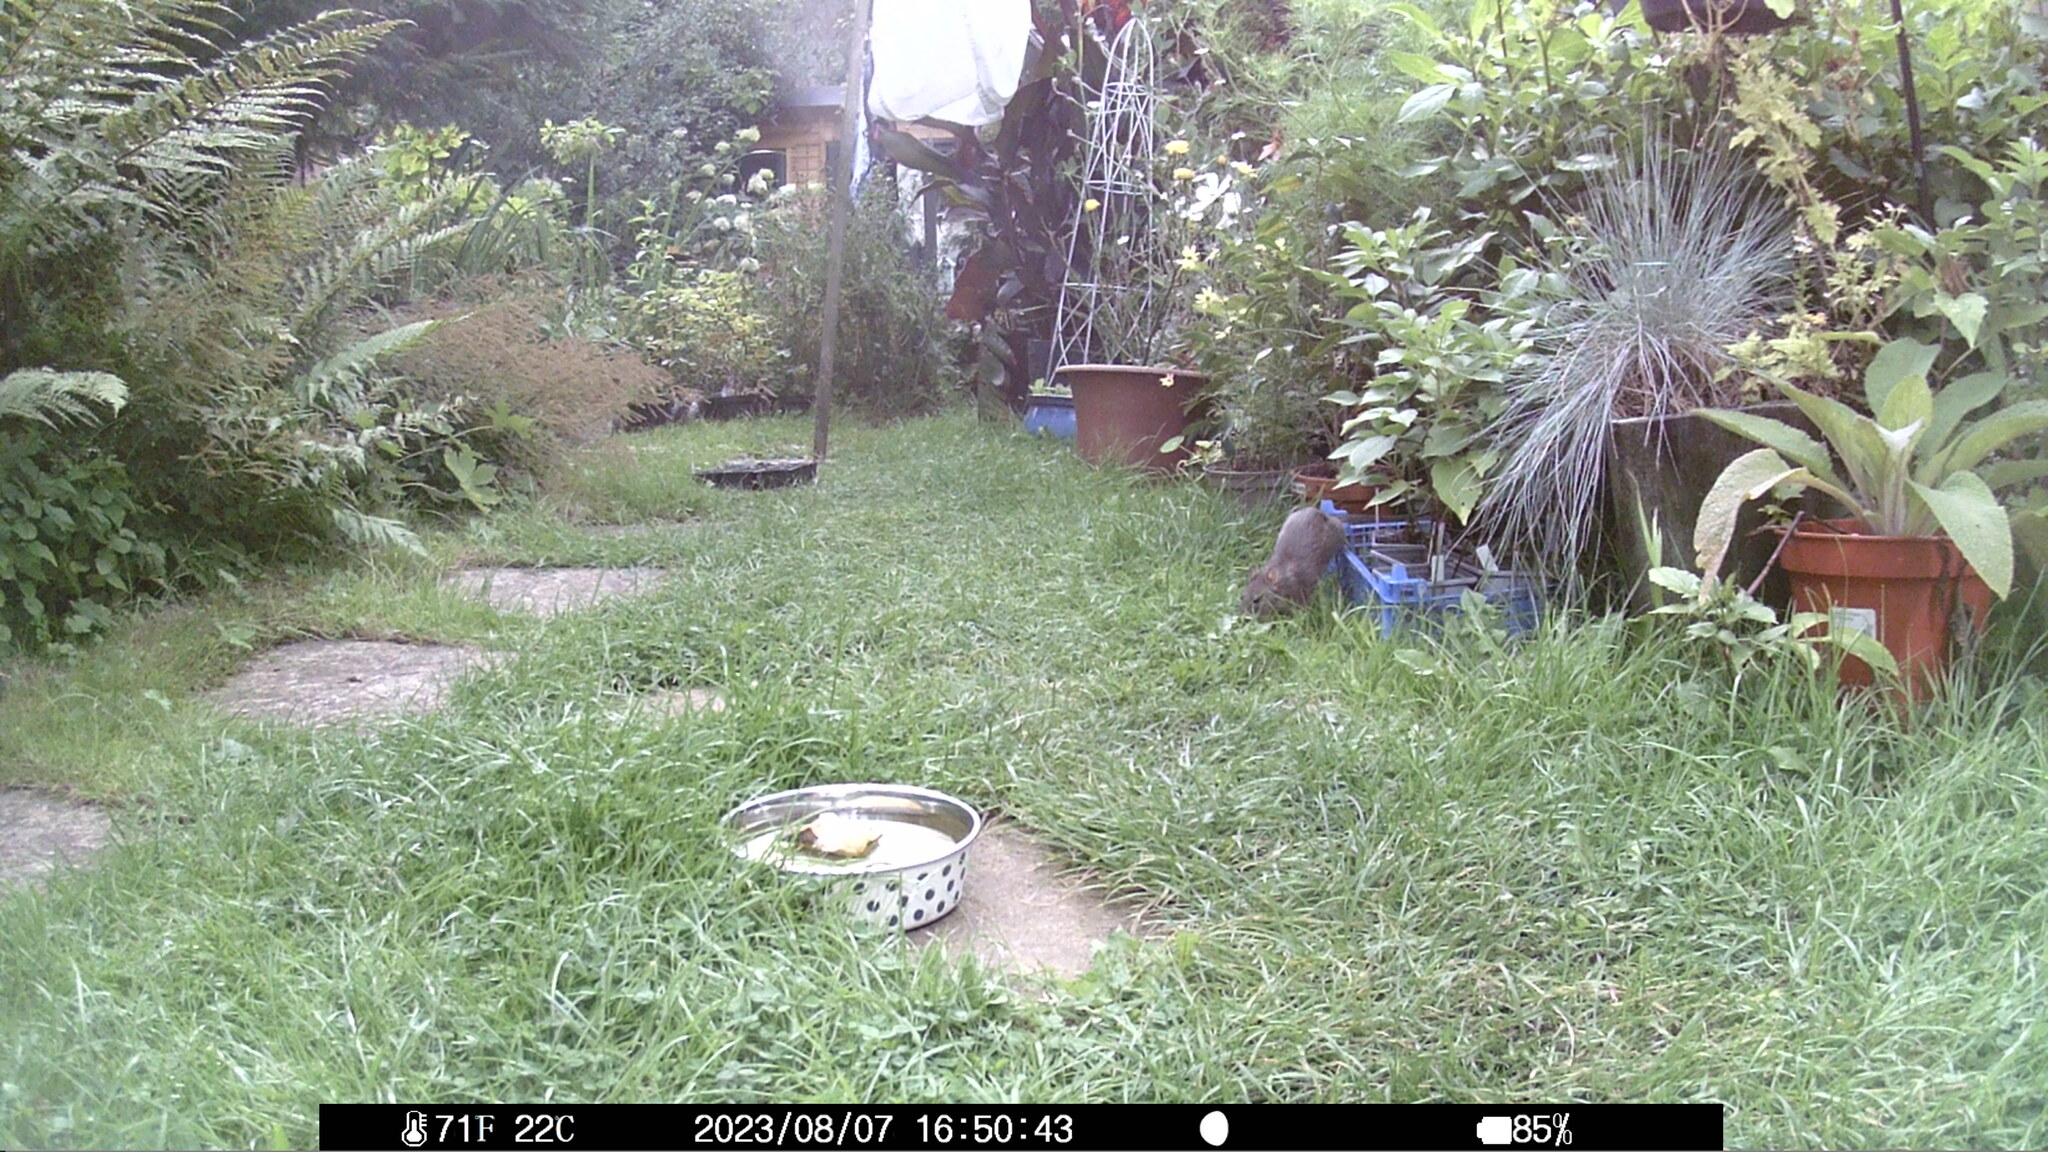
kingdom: Animalia
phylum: Chordata
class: Mammalia
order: Rodentia
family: Muridae
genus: Rattus
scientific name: Rattus norvegicus
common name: Brown rat
